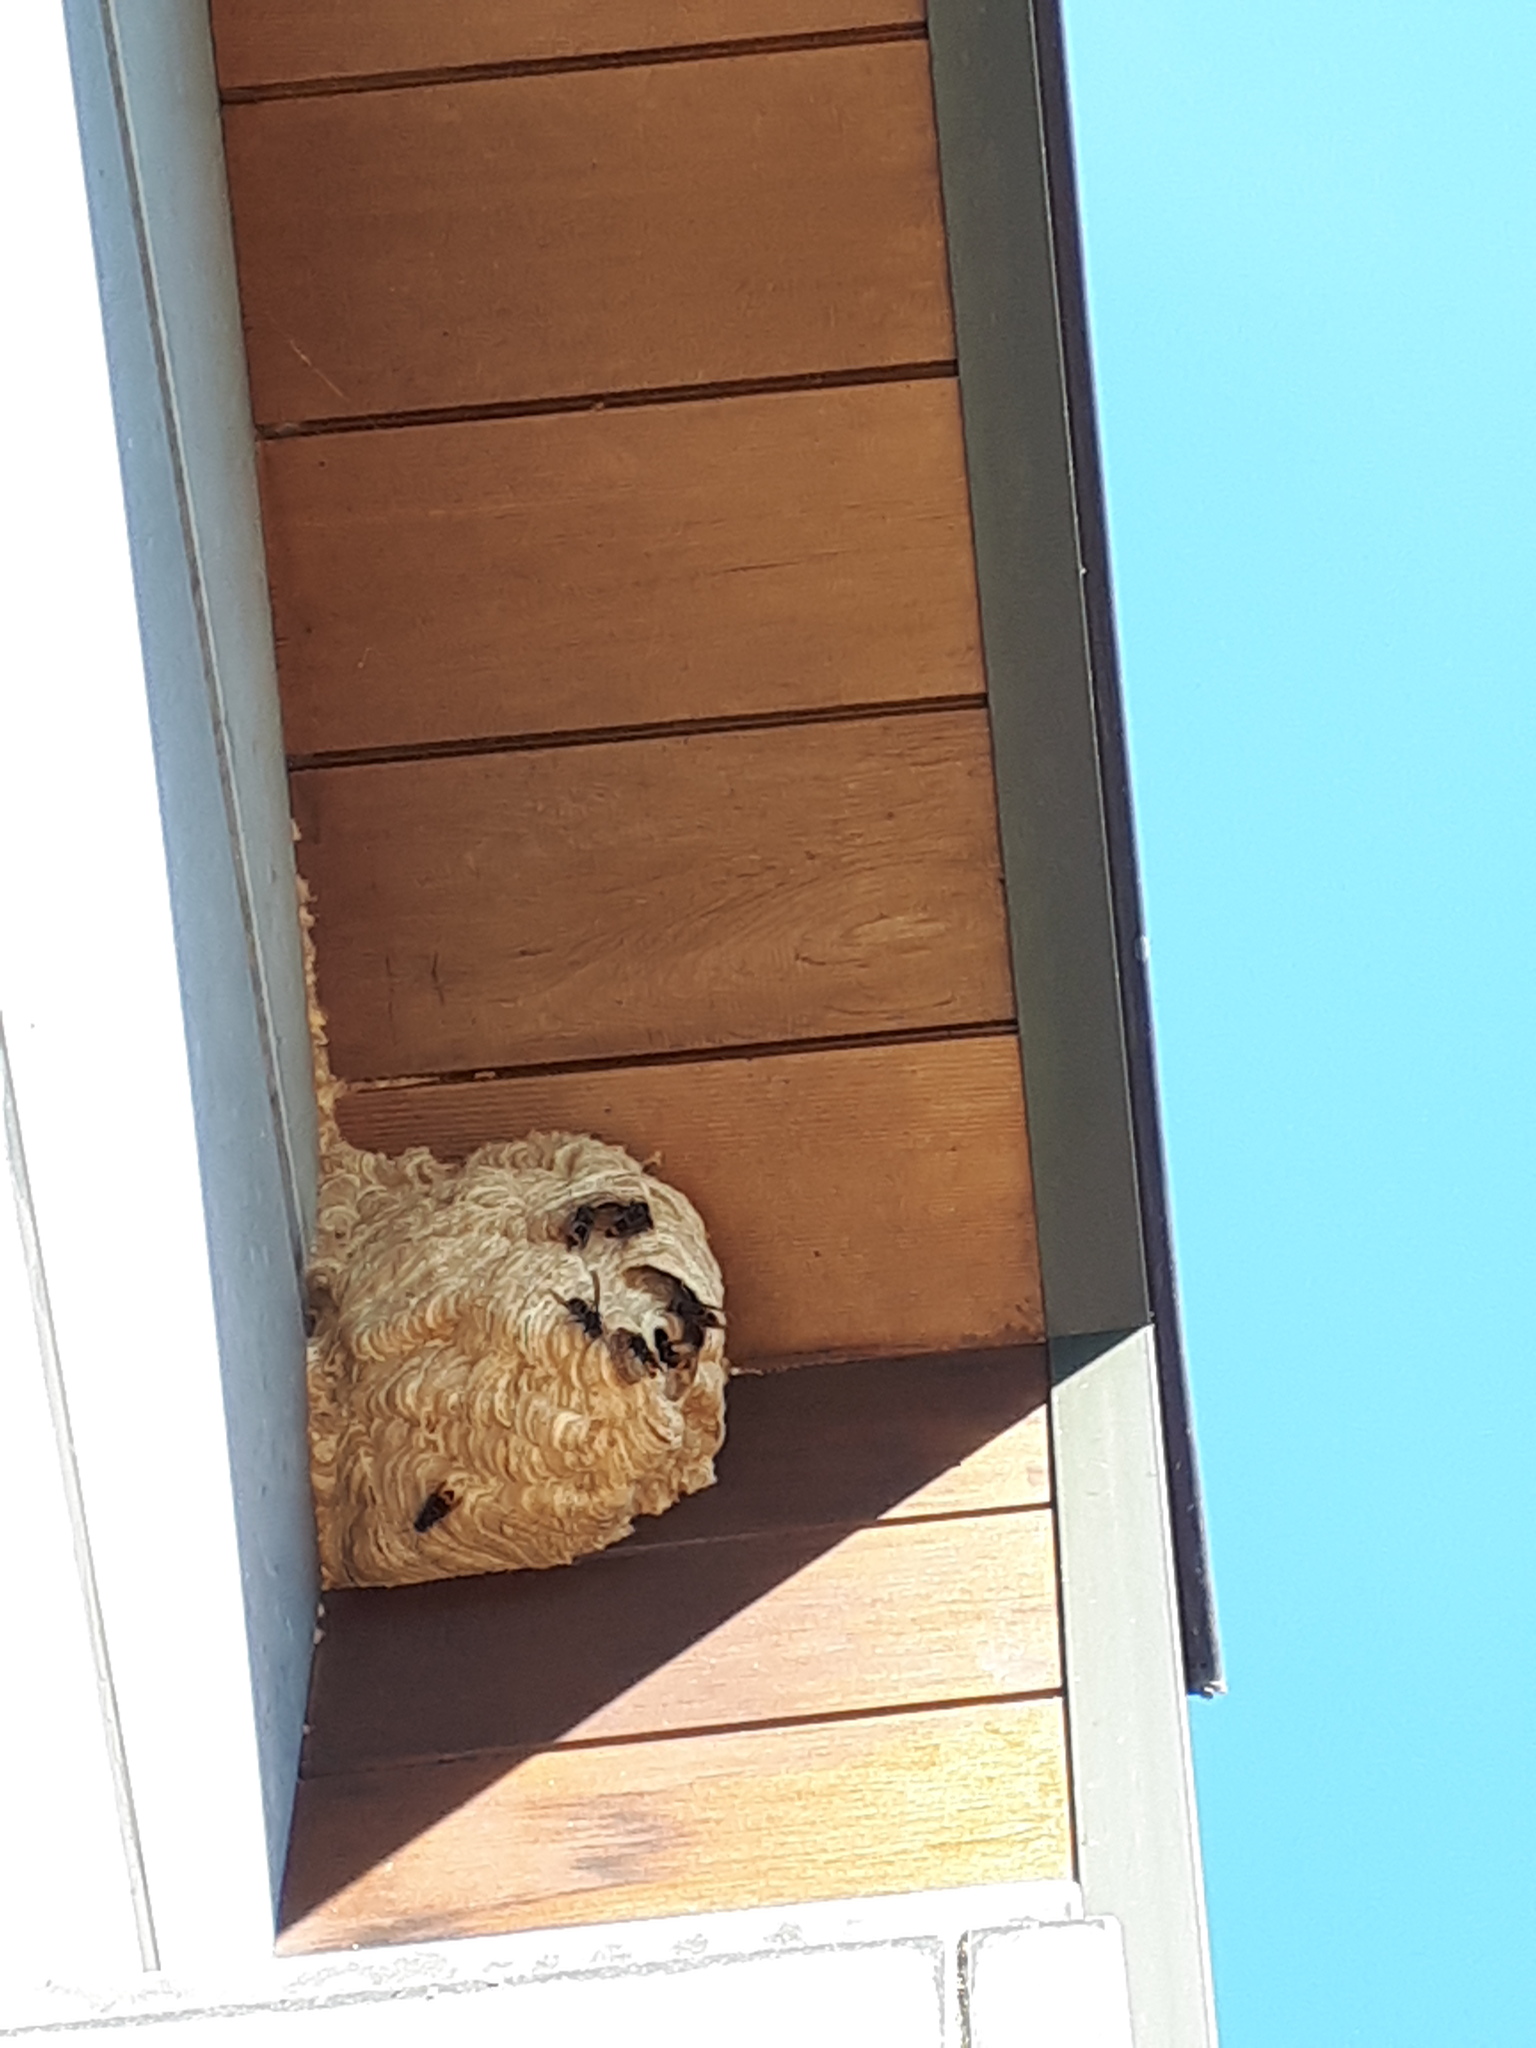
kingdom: Animalia
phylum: Arthropoda
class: Insecta
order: Hymenoptera
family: Vespidae
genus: Vespa
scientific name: Vespa velutina
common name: Asian hornet
